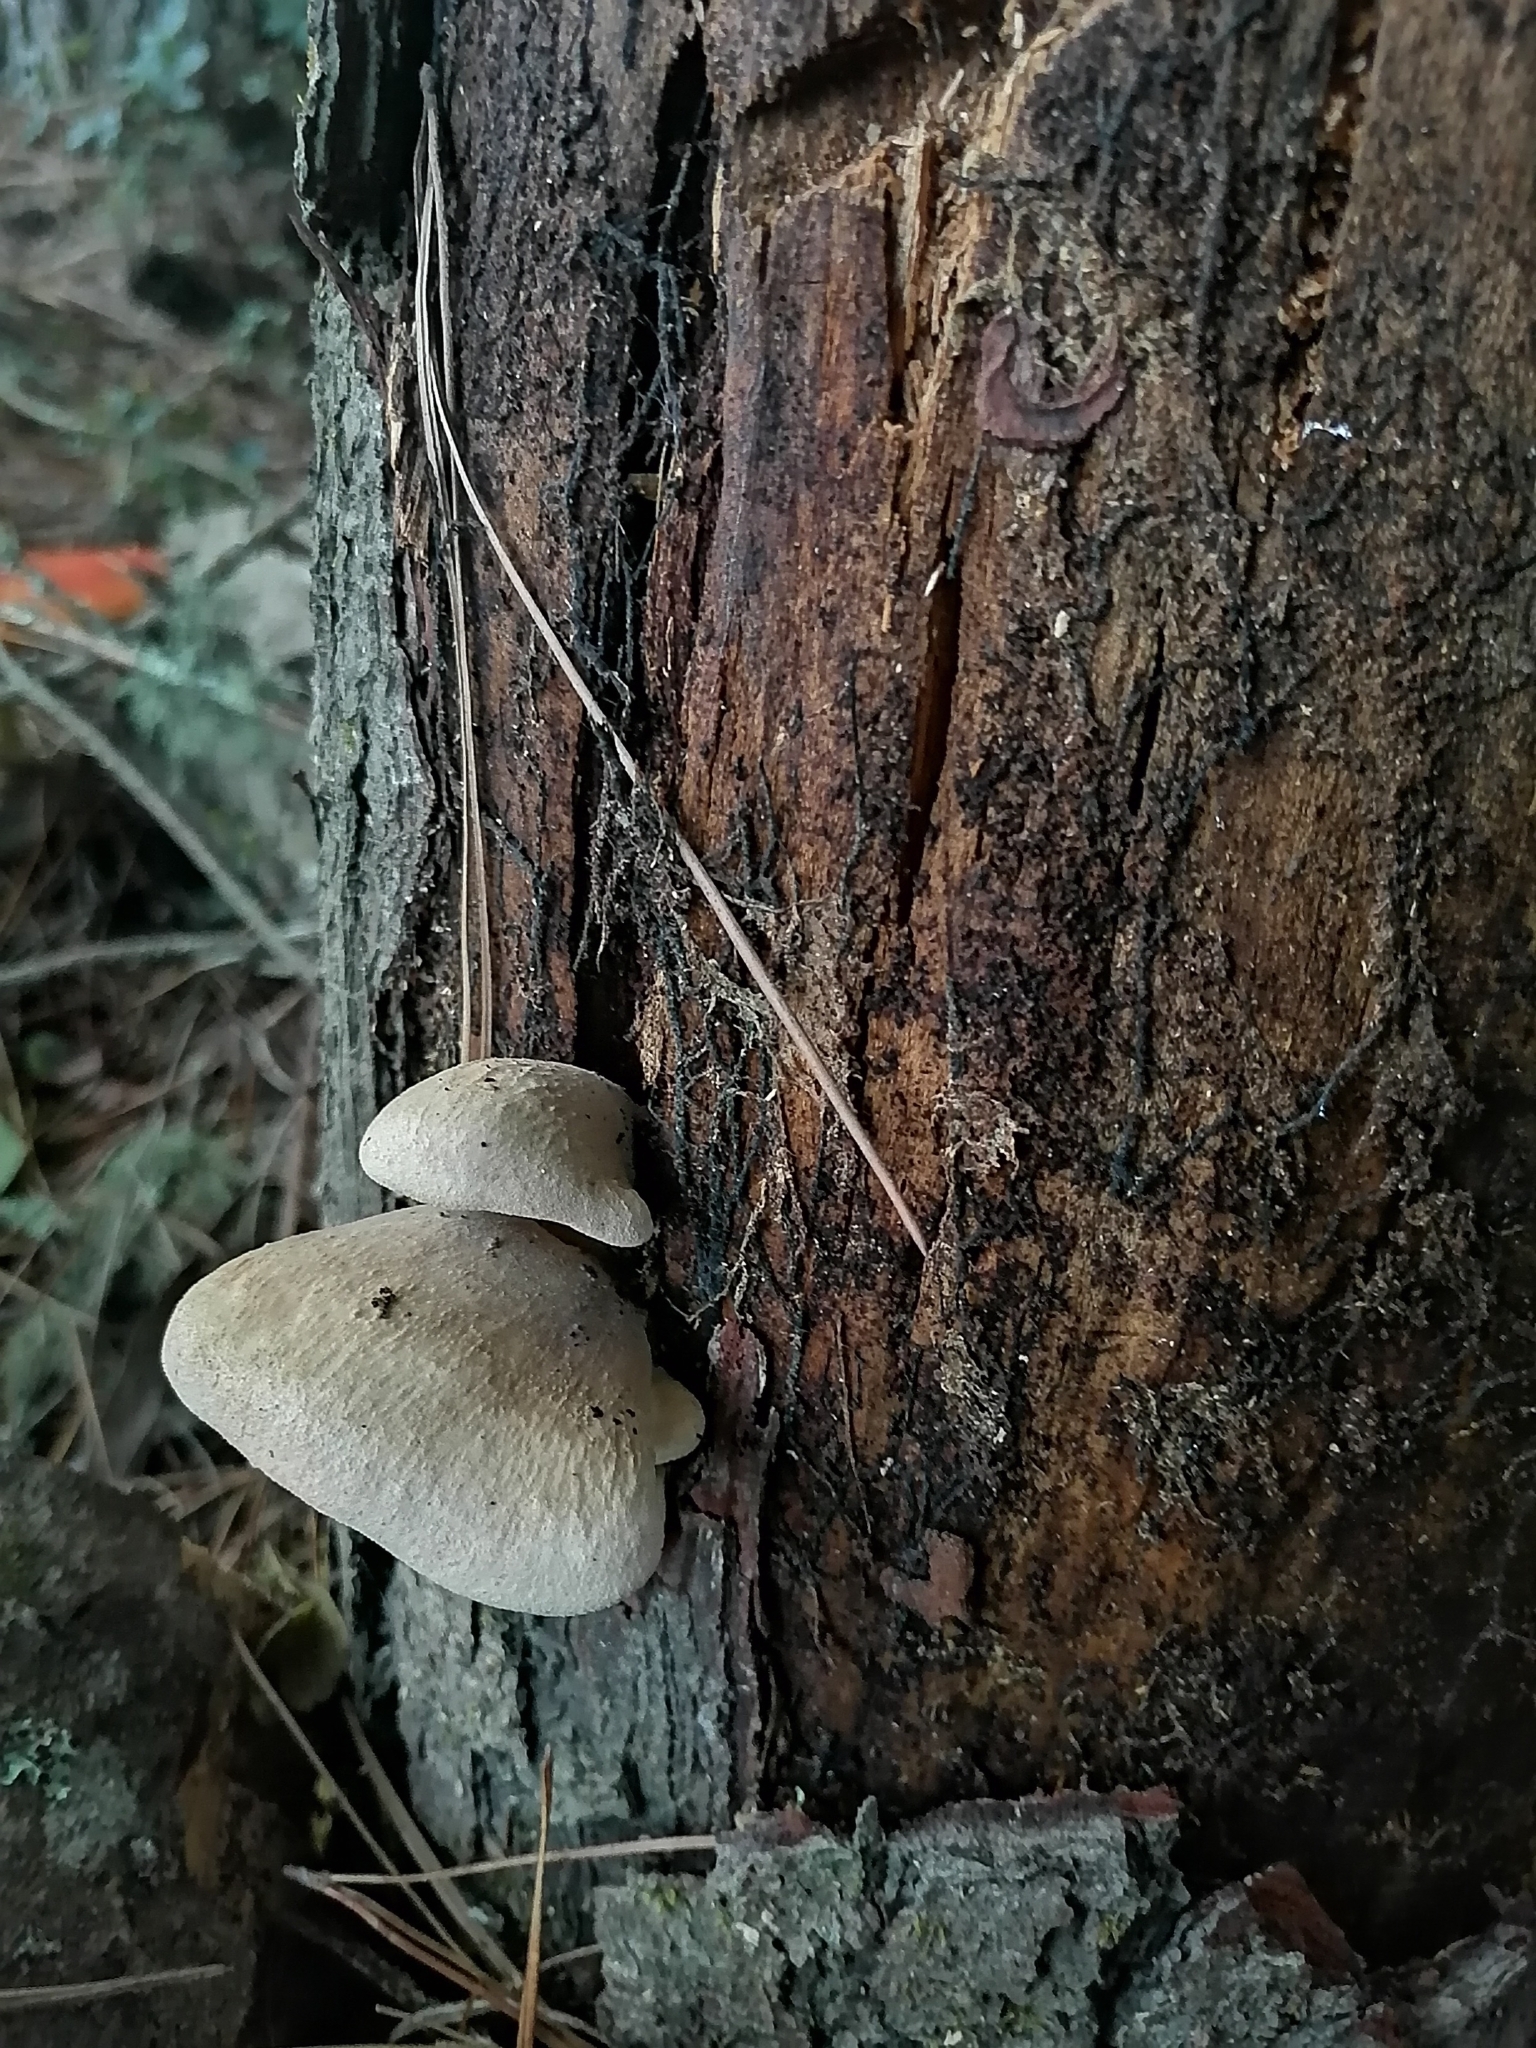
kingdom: Fungi
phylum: Basidiomycota
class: Agaricomycetes
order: Boletales
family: Tapinellaceae
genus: Tapinella
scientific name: Tapinella panuoides
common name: Oyster rollrim
